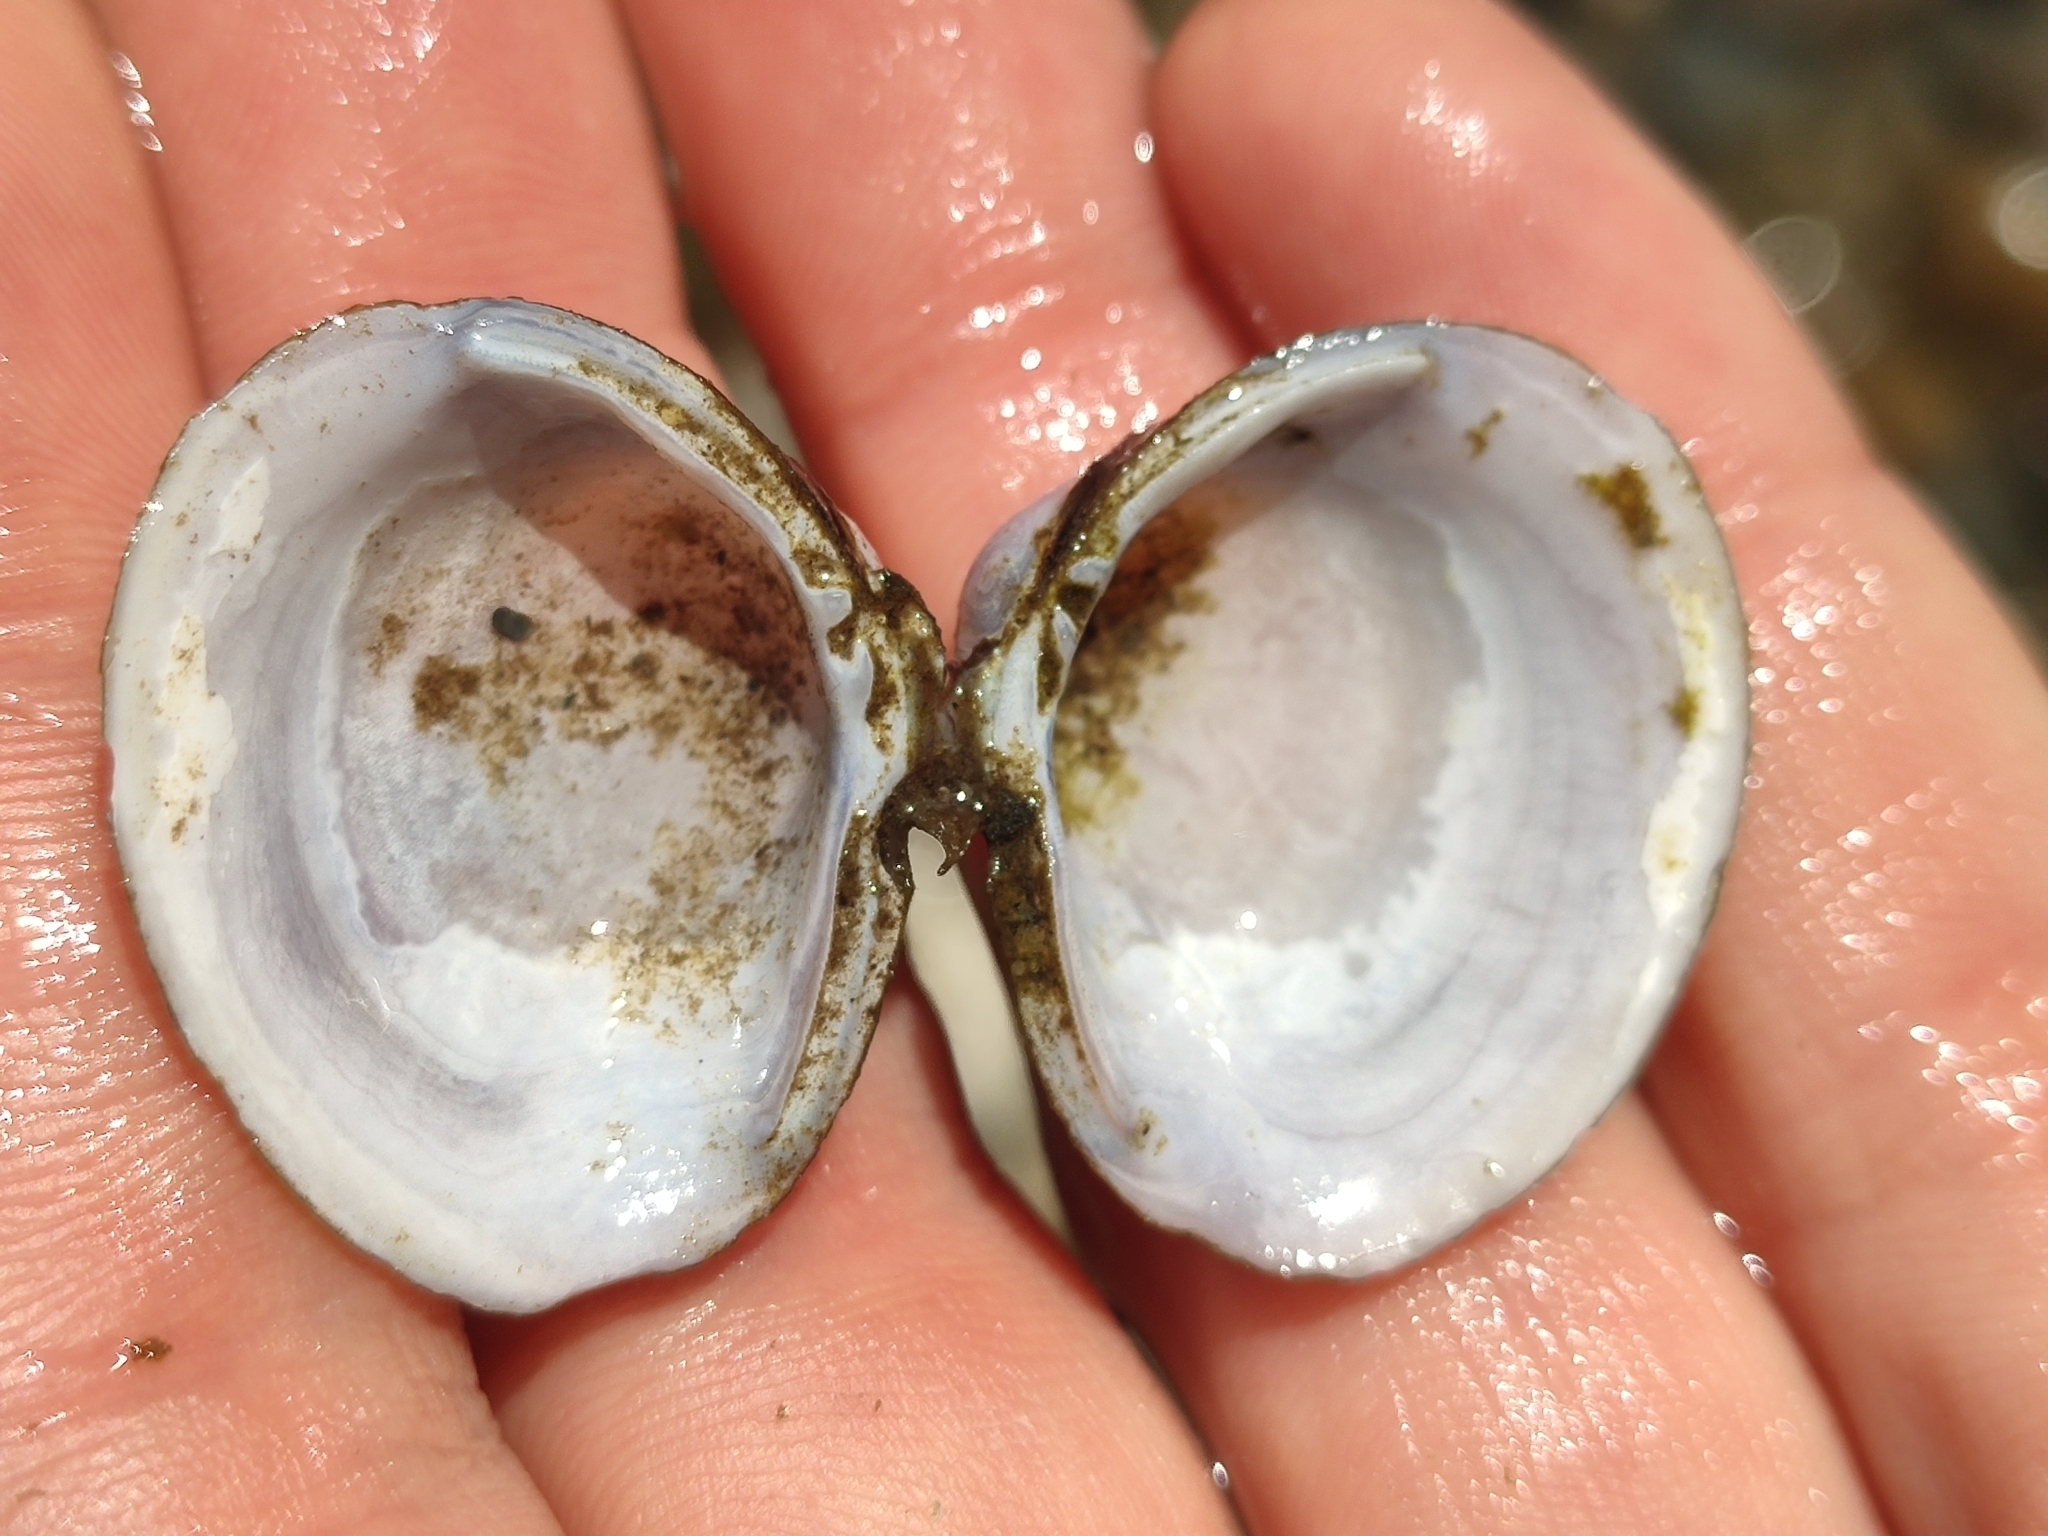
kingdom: Animalia
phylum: Mollusca
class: Bivalvia
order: Venerida
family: Cyrenidae
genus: Corbicula
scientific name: Corbicula fluminea
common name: Asian clam
